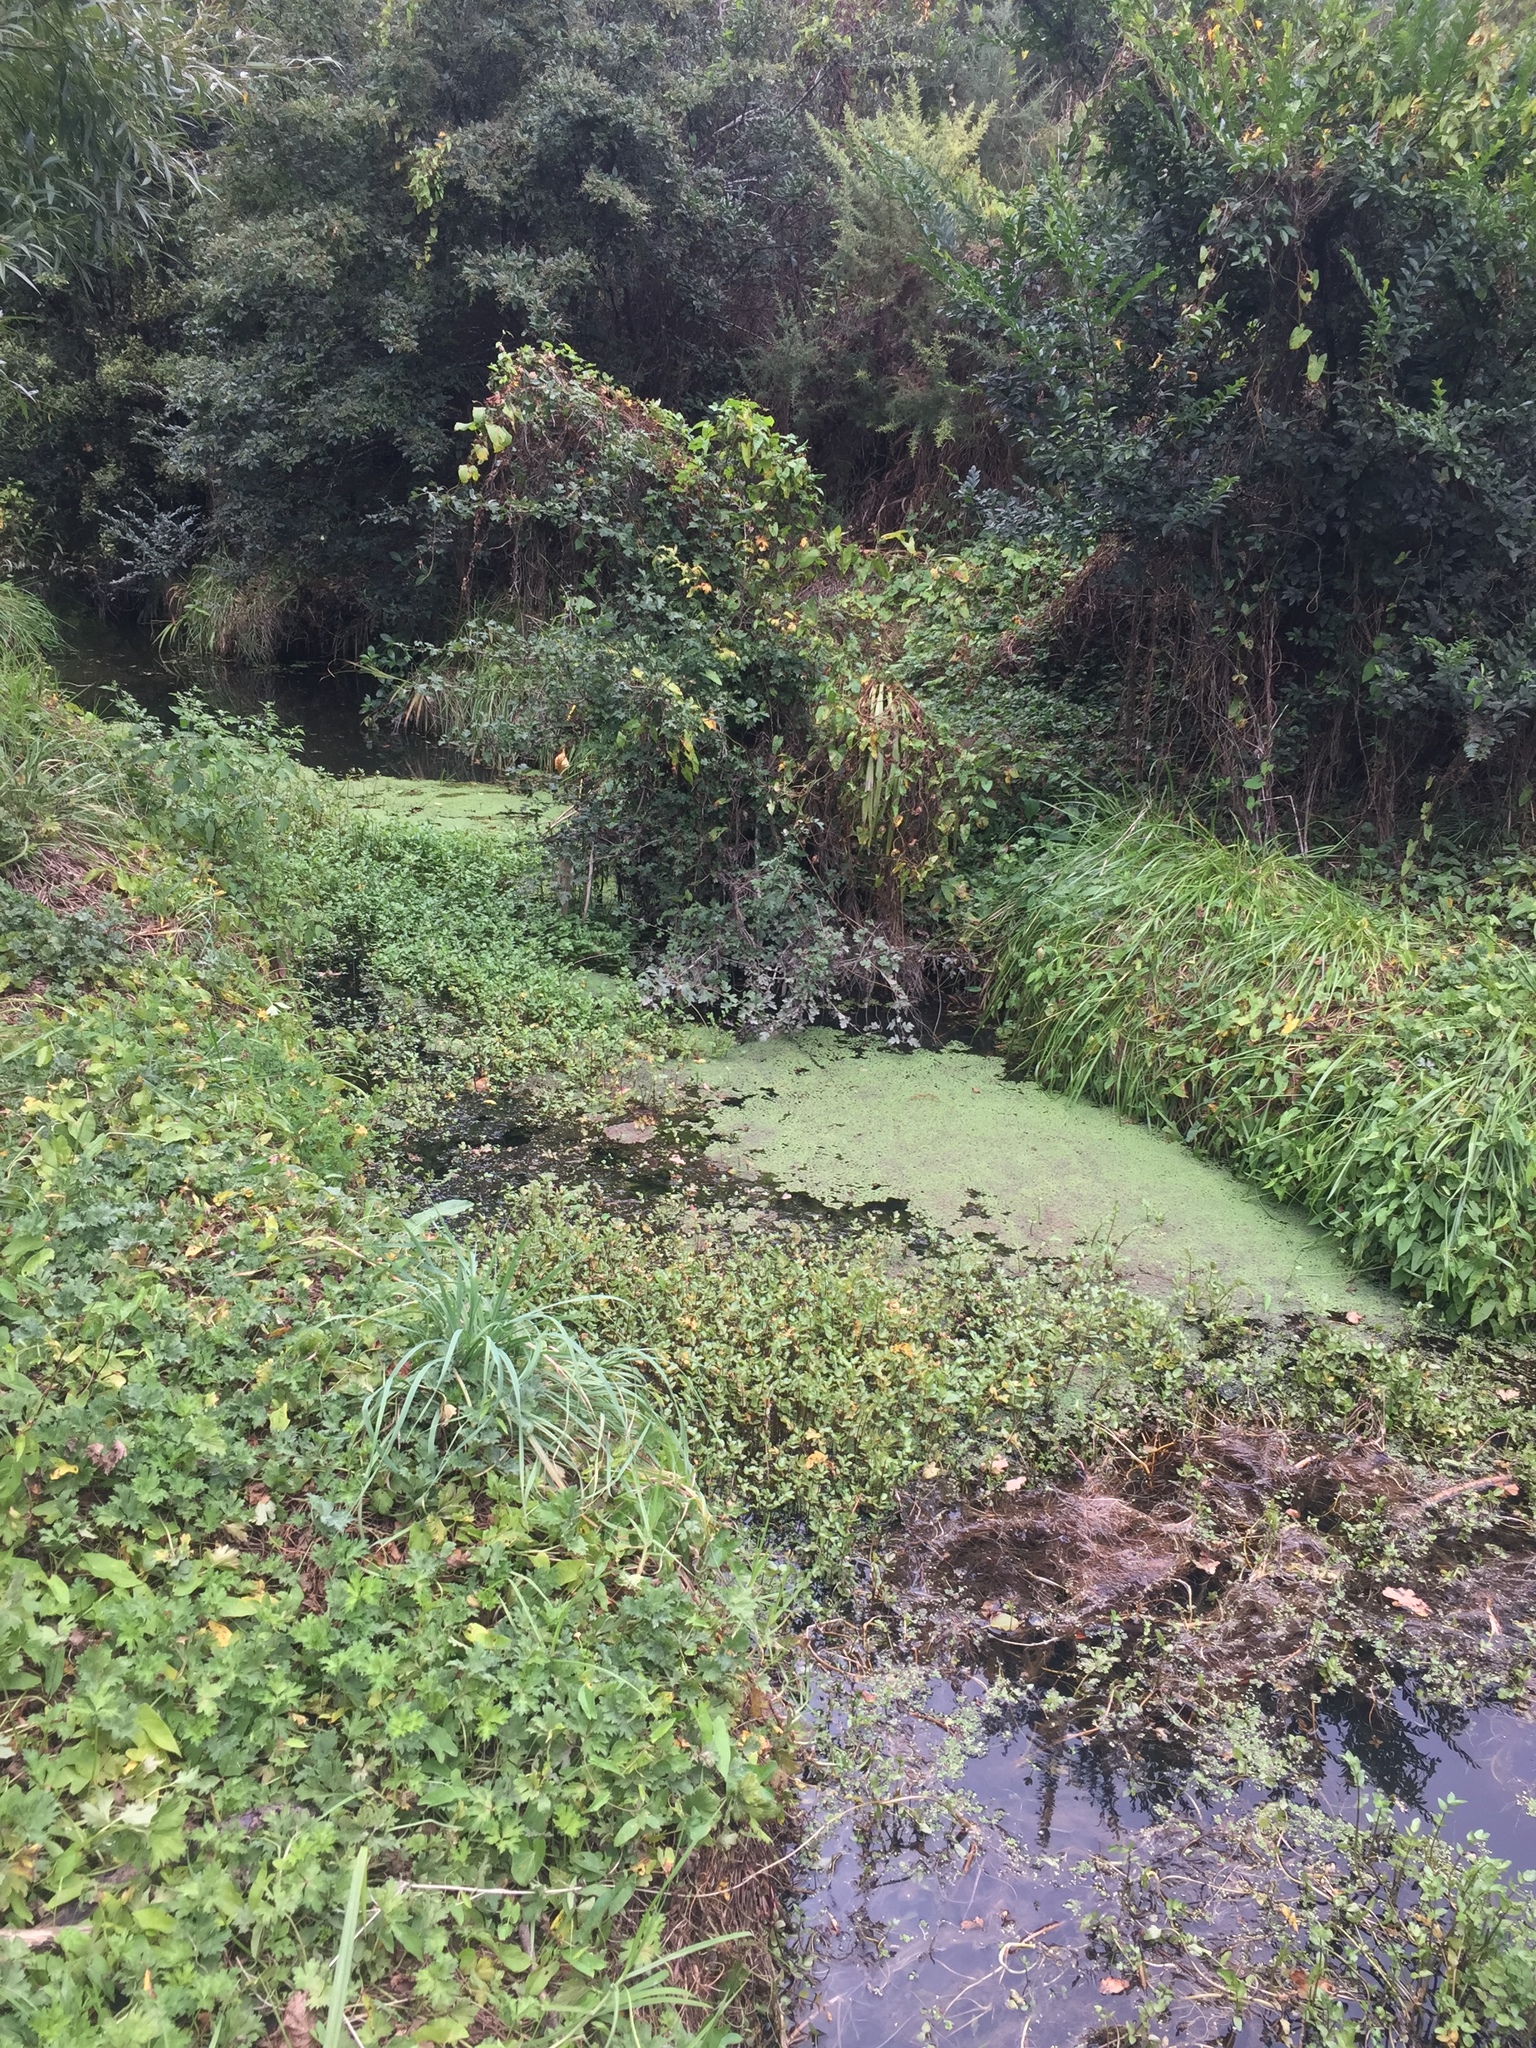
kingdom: Plantae
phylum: Tracheophyta
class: Polypodiopsida
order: Salviniales
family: Salviniaceae
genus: Azolla
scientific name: Azolla rubra
